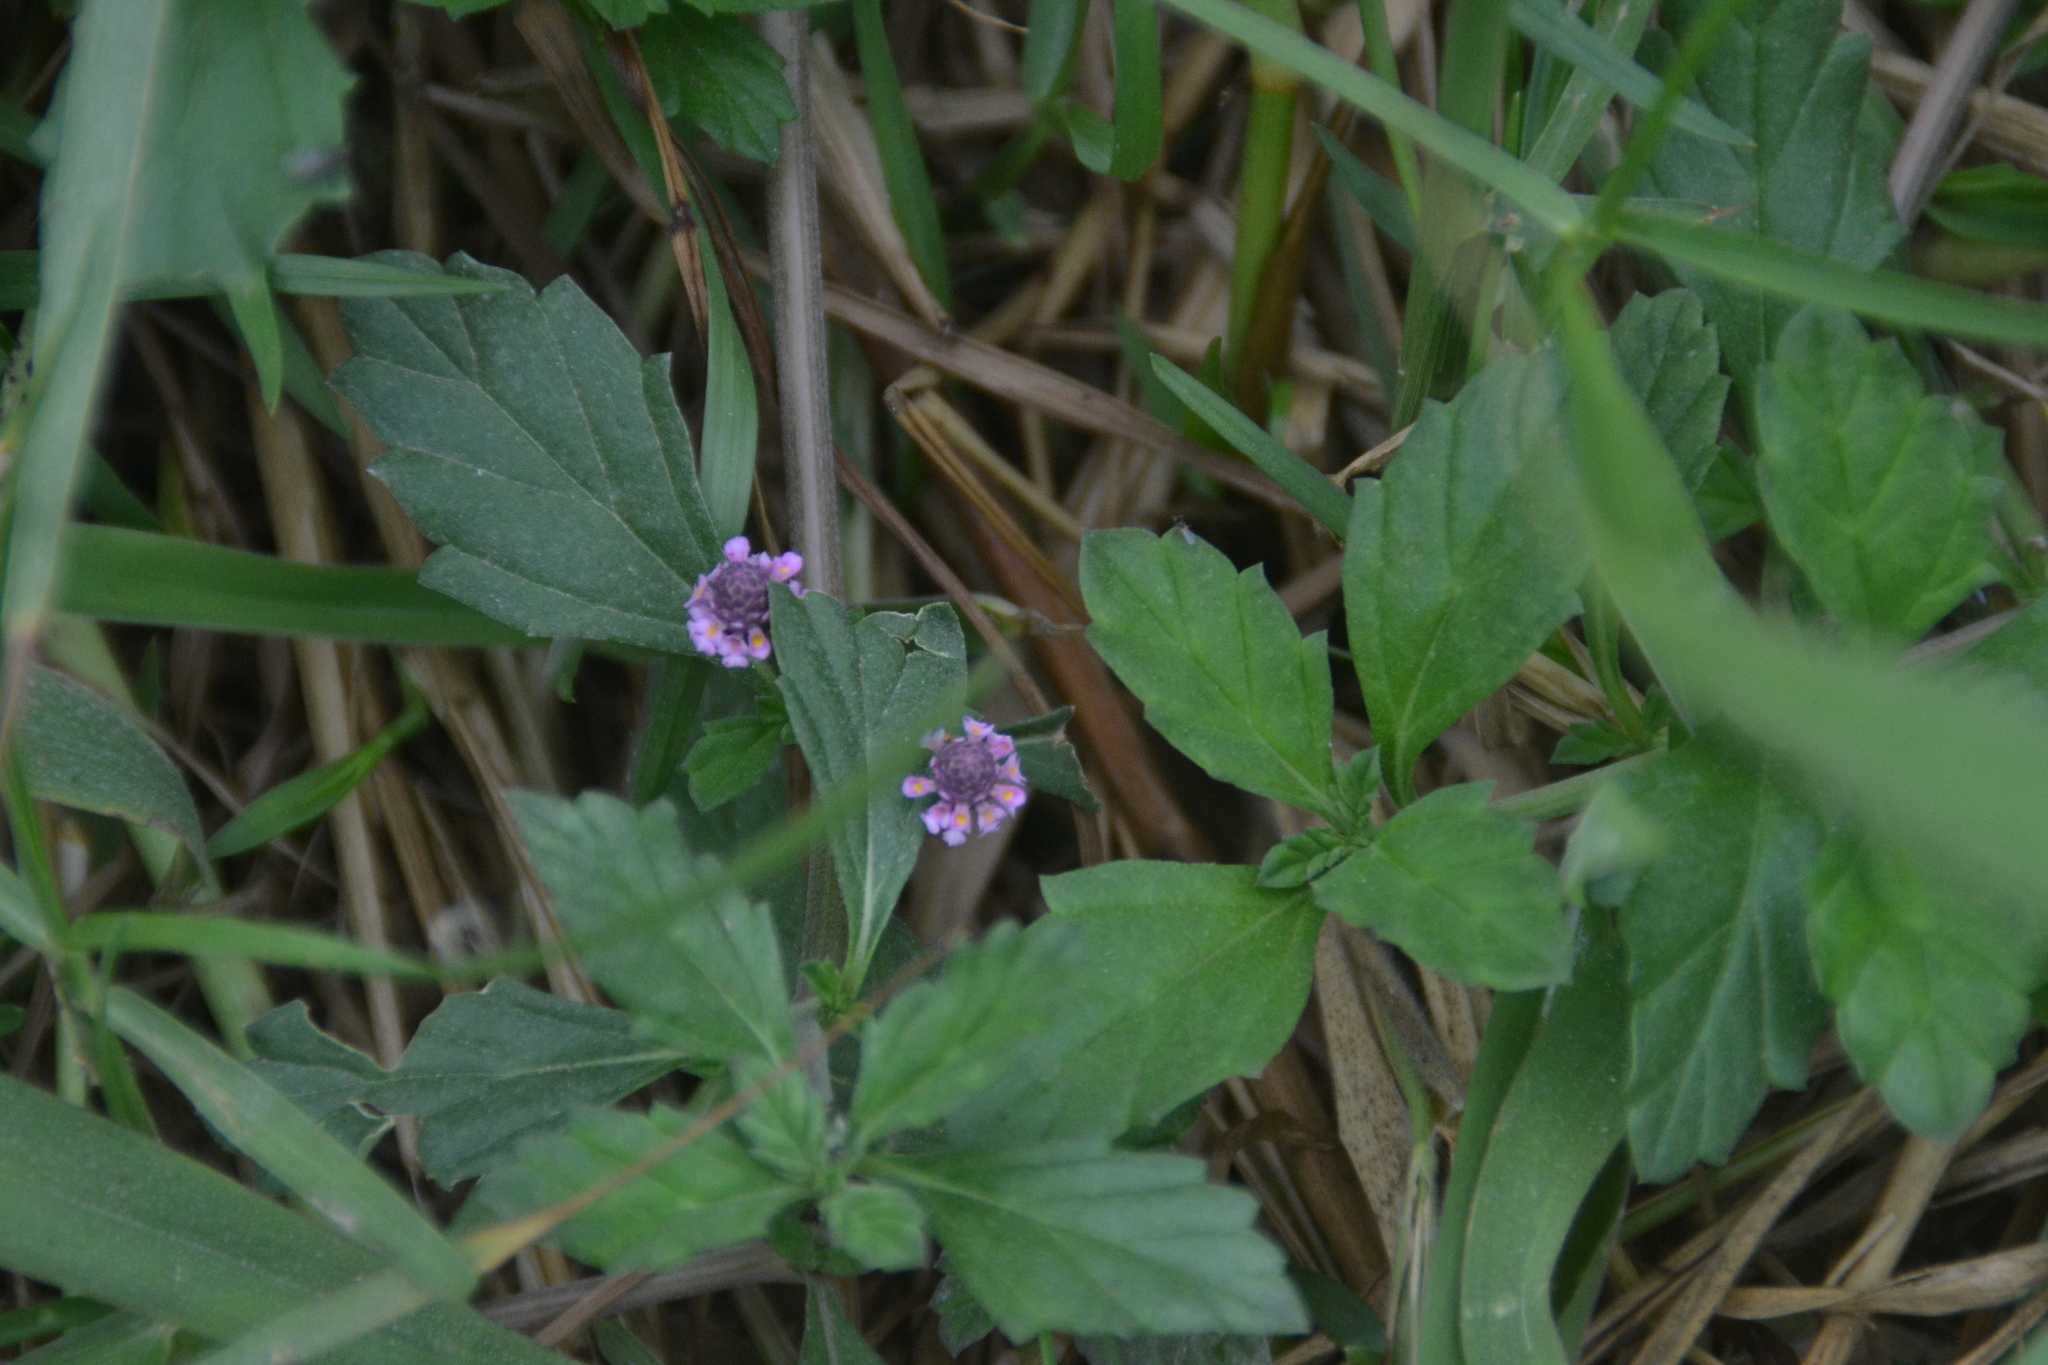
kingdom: Plantae
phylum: Tracheophyta
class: Magnoliopsida
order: Lamiales
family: Verbenaceae
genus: Phyla
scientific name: Phyla nodiflora
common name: Frogfruit
